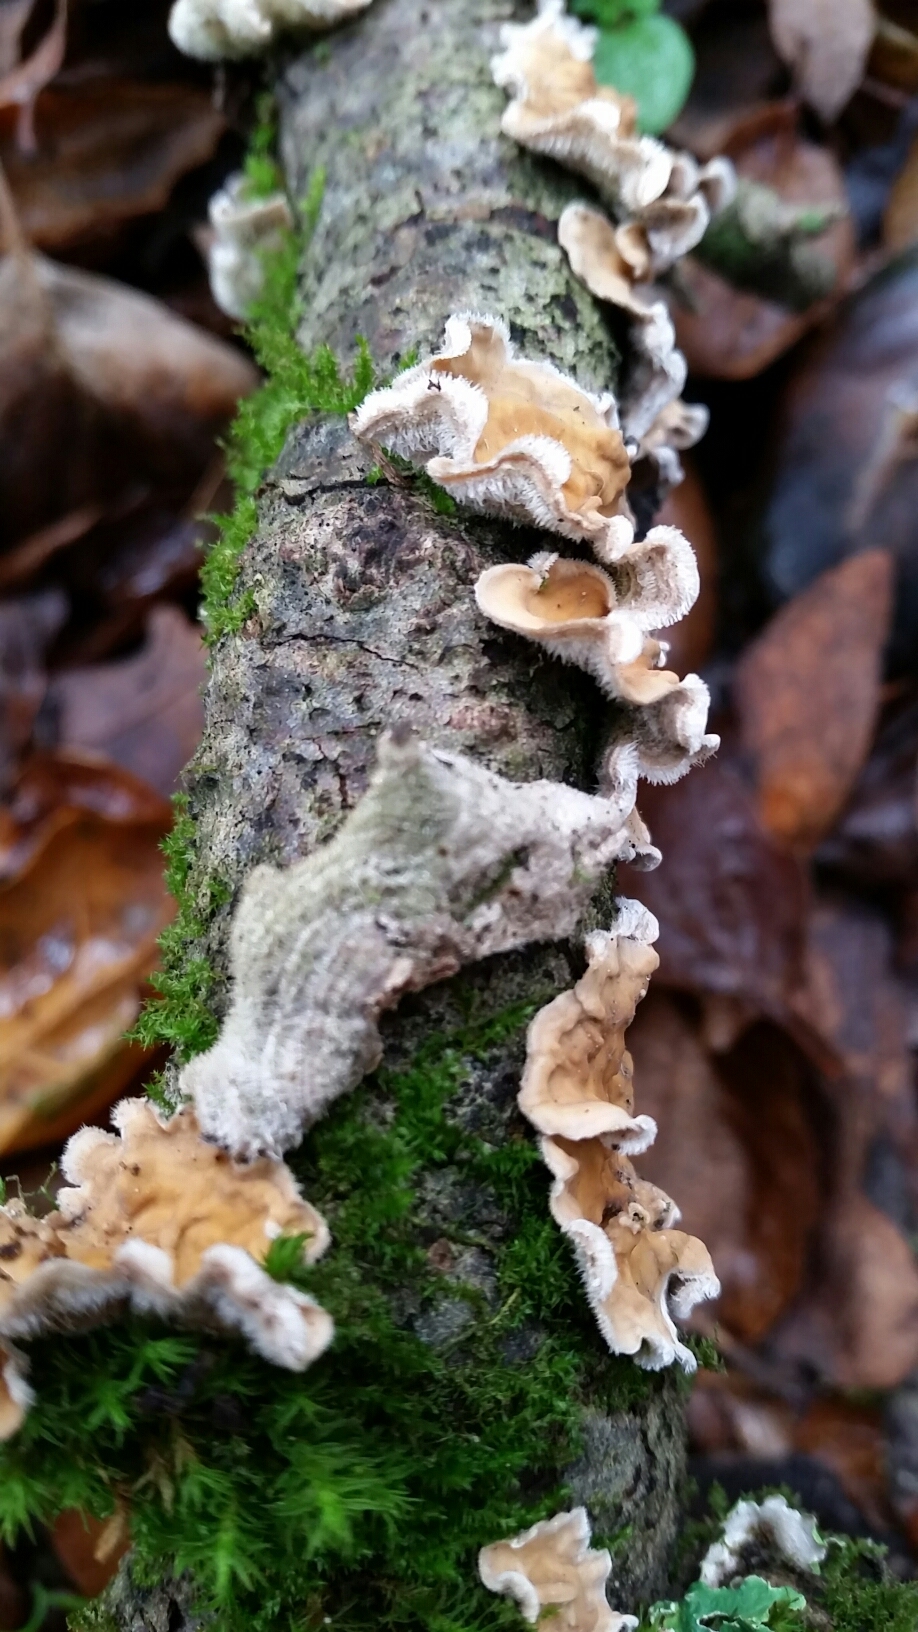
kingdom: Fungi
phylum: Basidiomycota
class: Agaricomycetes
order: Russulales
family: Stereaceae
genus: Stereum
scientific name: Stereum ochraceoflavum
